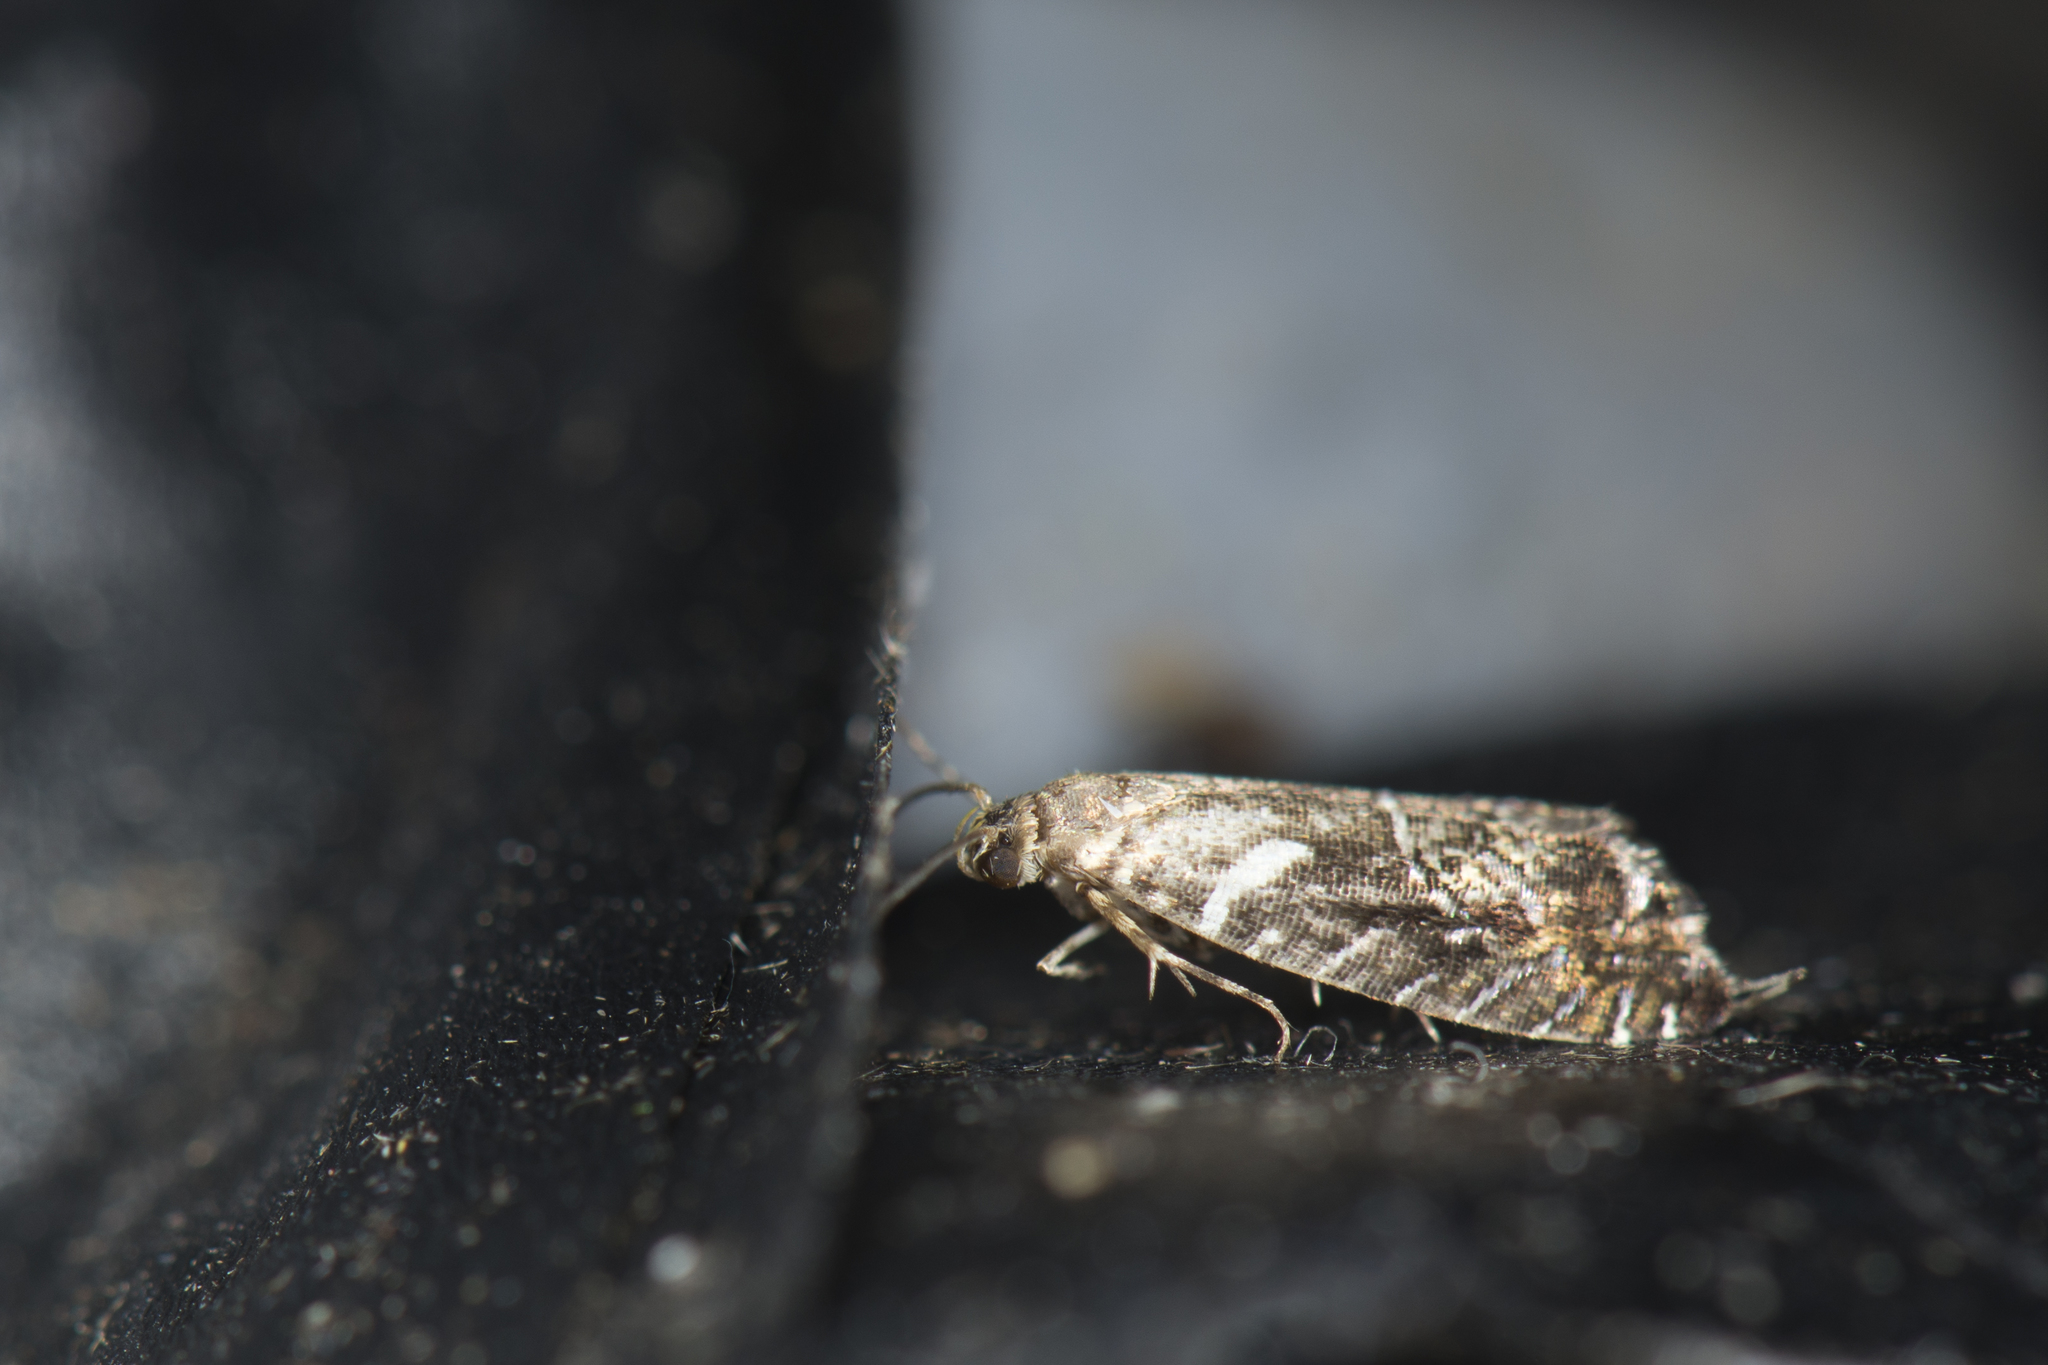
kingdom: Animalia
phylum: Arthropoda
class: Insecta
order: Lepidoptera
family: Glyphipterigidae
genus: Glyphipterix
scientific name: Glyphipterix lunaris
